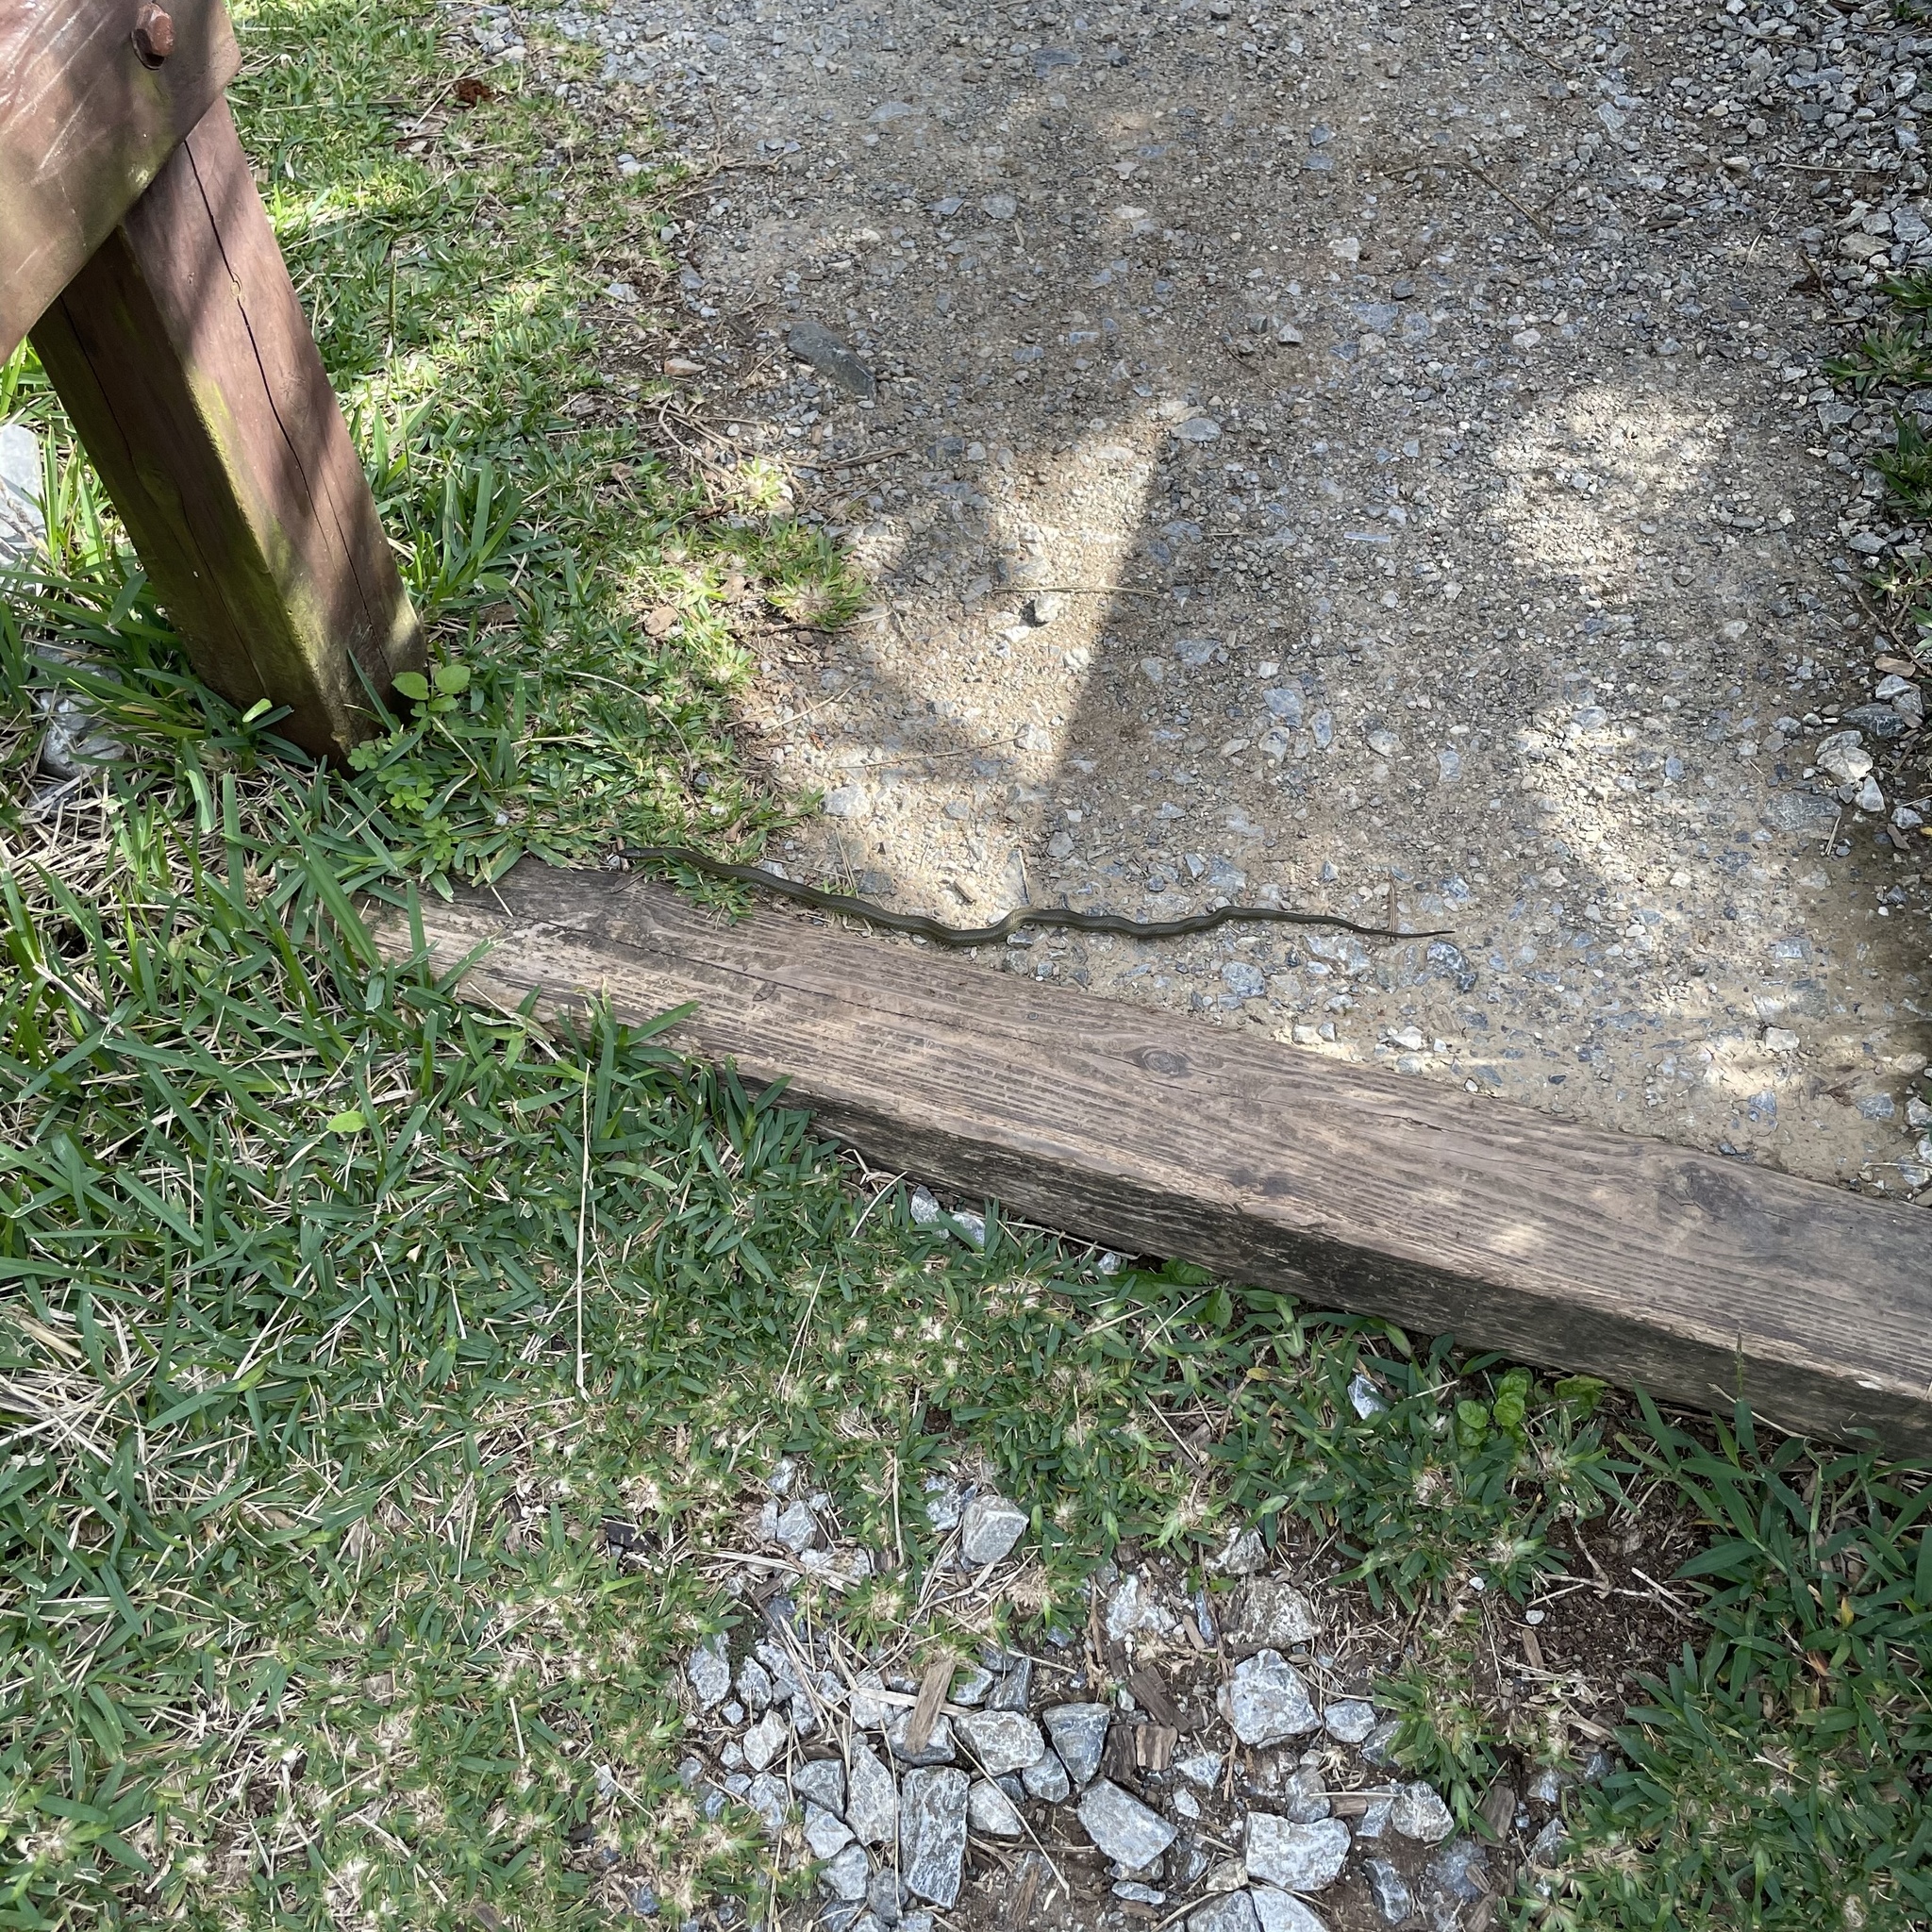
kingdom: Animalia
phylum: Chordata
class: Squamata
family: Colubridae
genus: Ptyas
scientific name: Ptyas semicarinata
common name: Ryukyu green snake
